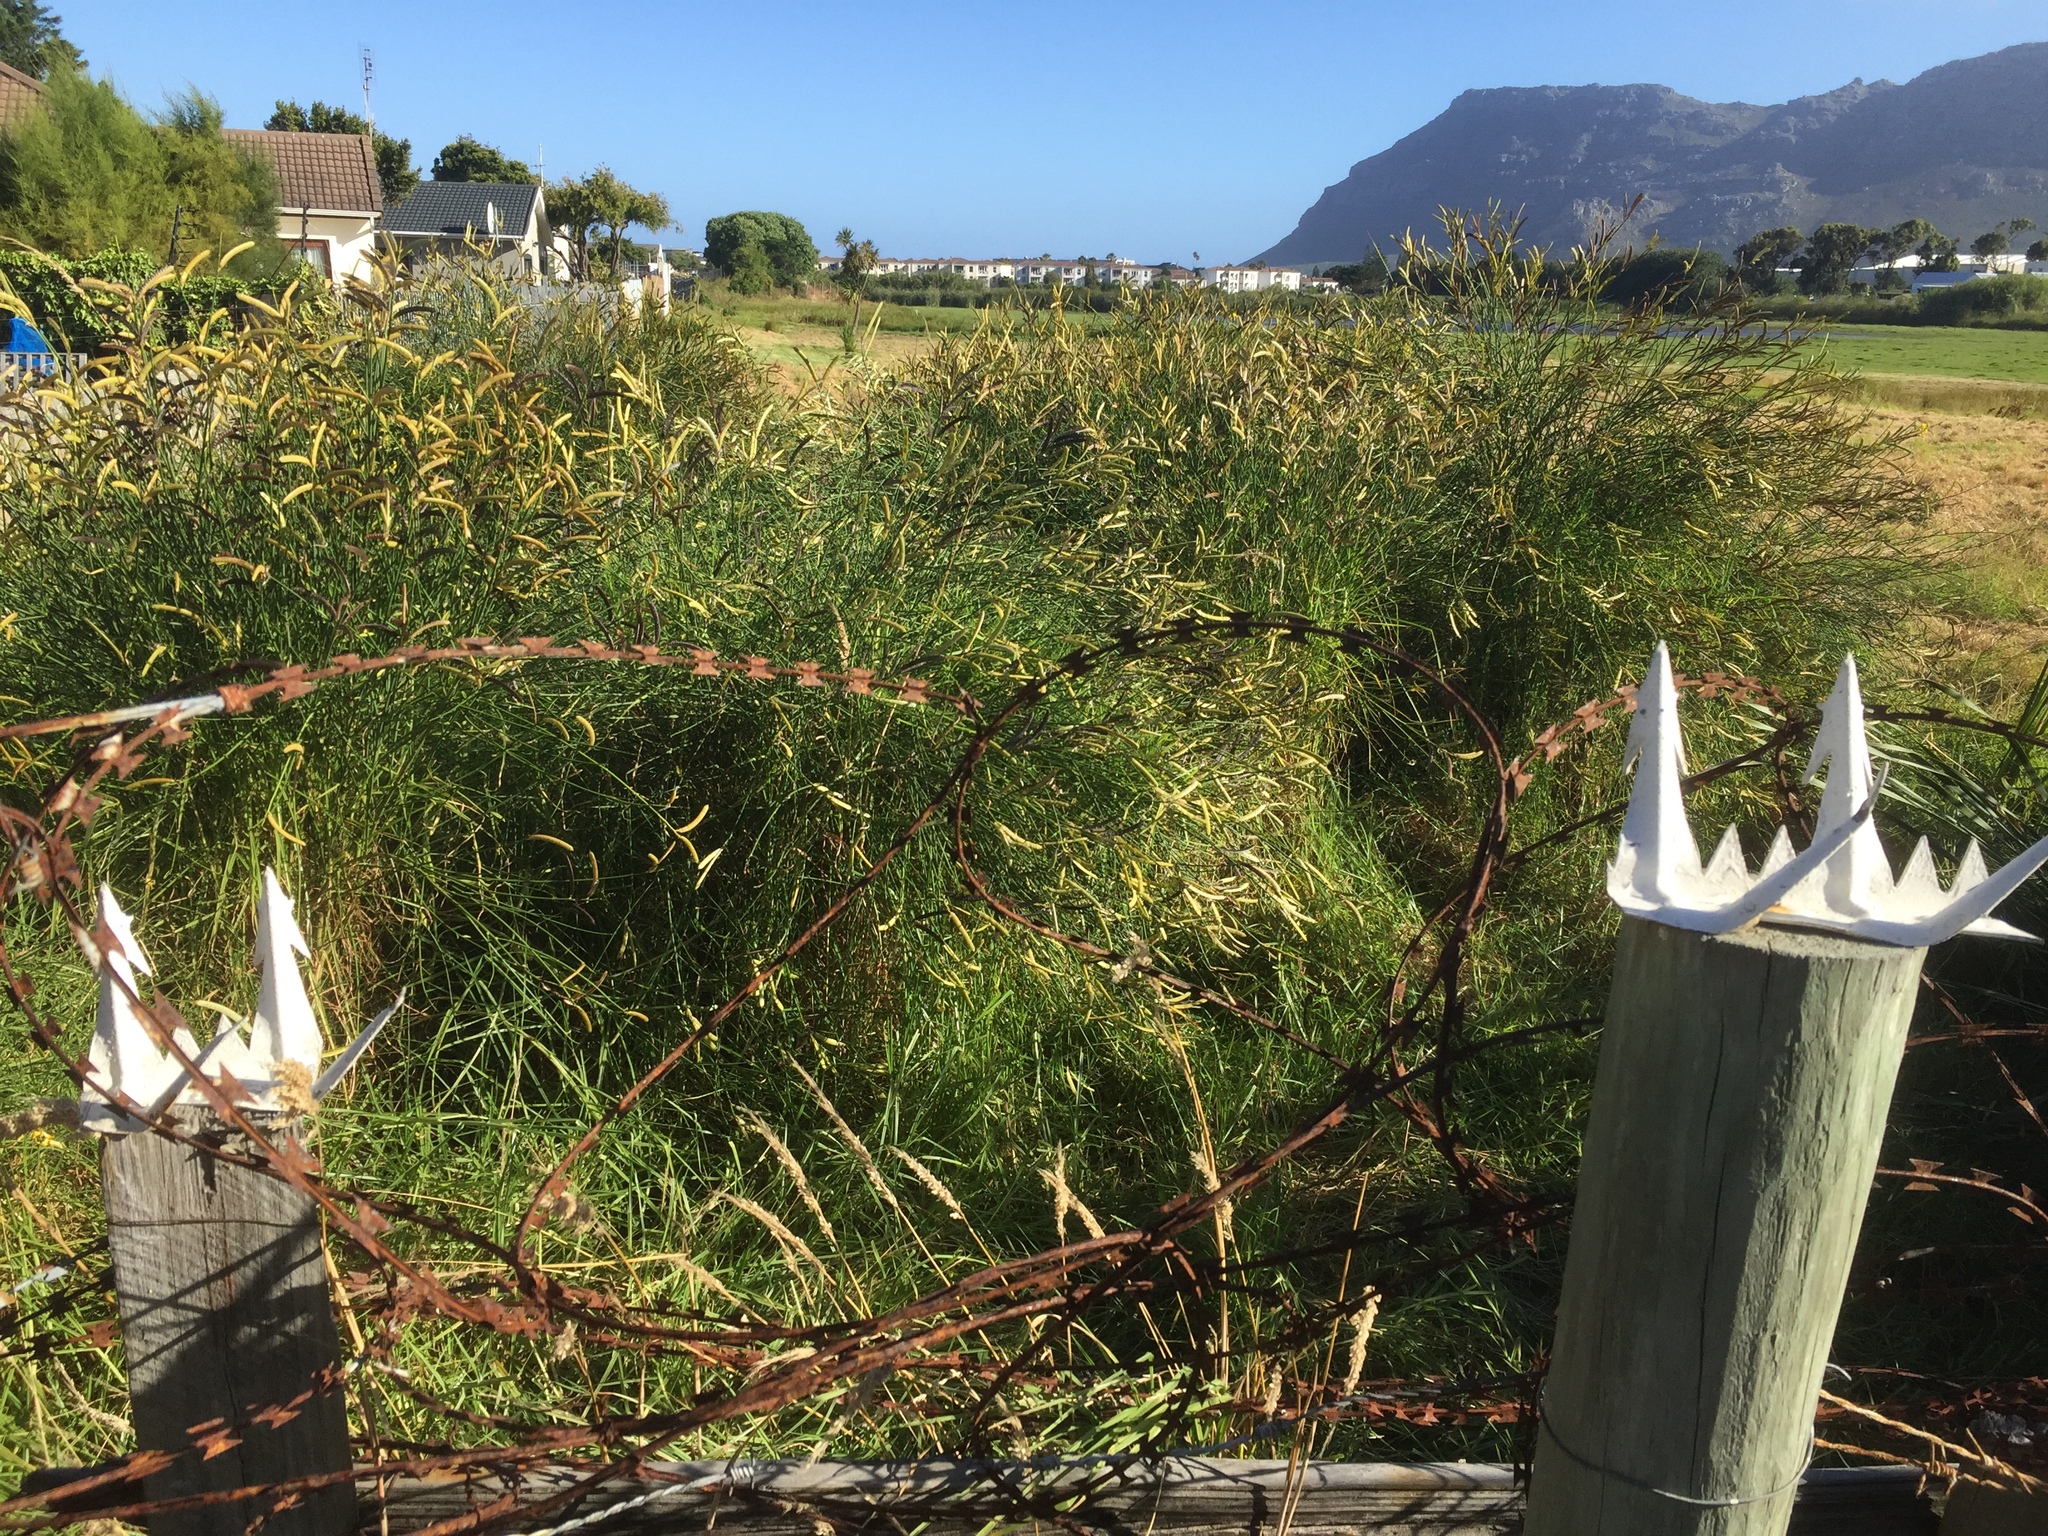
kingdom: Plantae
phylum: Tracheophyta
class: Magnoliopsida
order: Fabales
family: Fabaceae
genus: Spartium
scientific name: Spartium junceum
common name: Spanish broom
